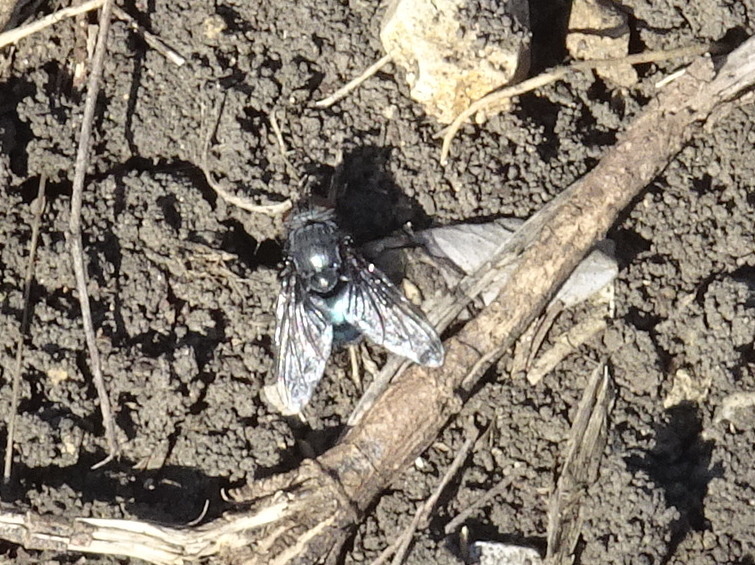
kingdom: Animalia
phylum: Arthropoda
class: Insecta
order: Diptera
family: Calliphoridae
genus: Calliphora
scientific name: Calliphora vicina
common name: Common blow flie
